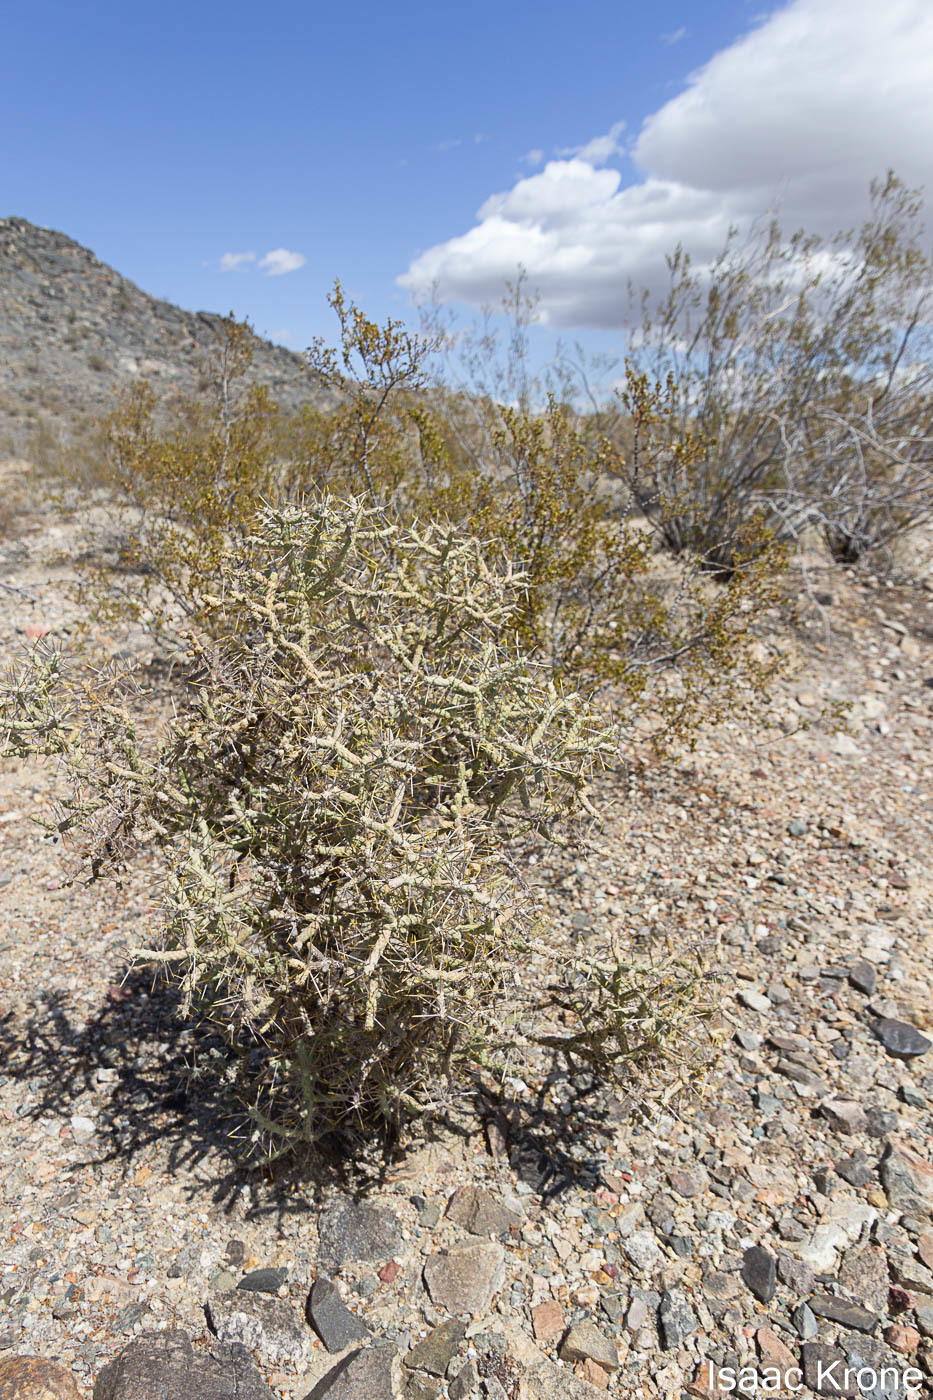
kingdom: Plantae
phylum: Tracheophyta
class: Magnoliopsida
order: Caryophyllales
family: Cactaceae
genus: Cylindropuntia
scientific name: Cylindropuntia ramosissima
